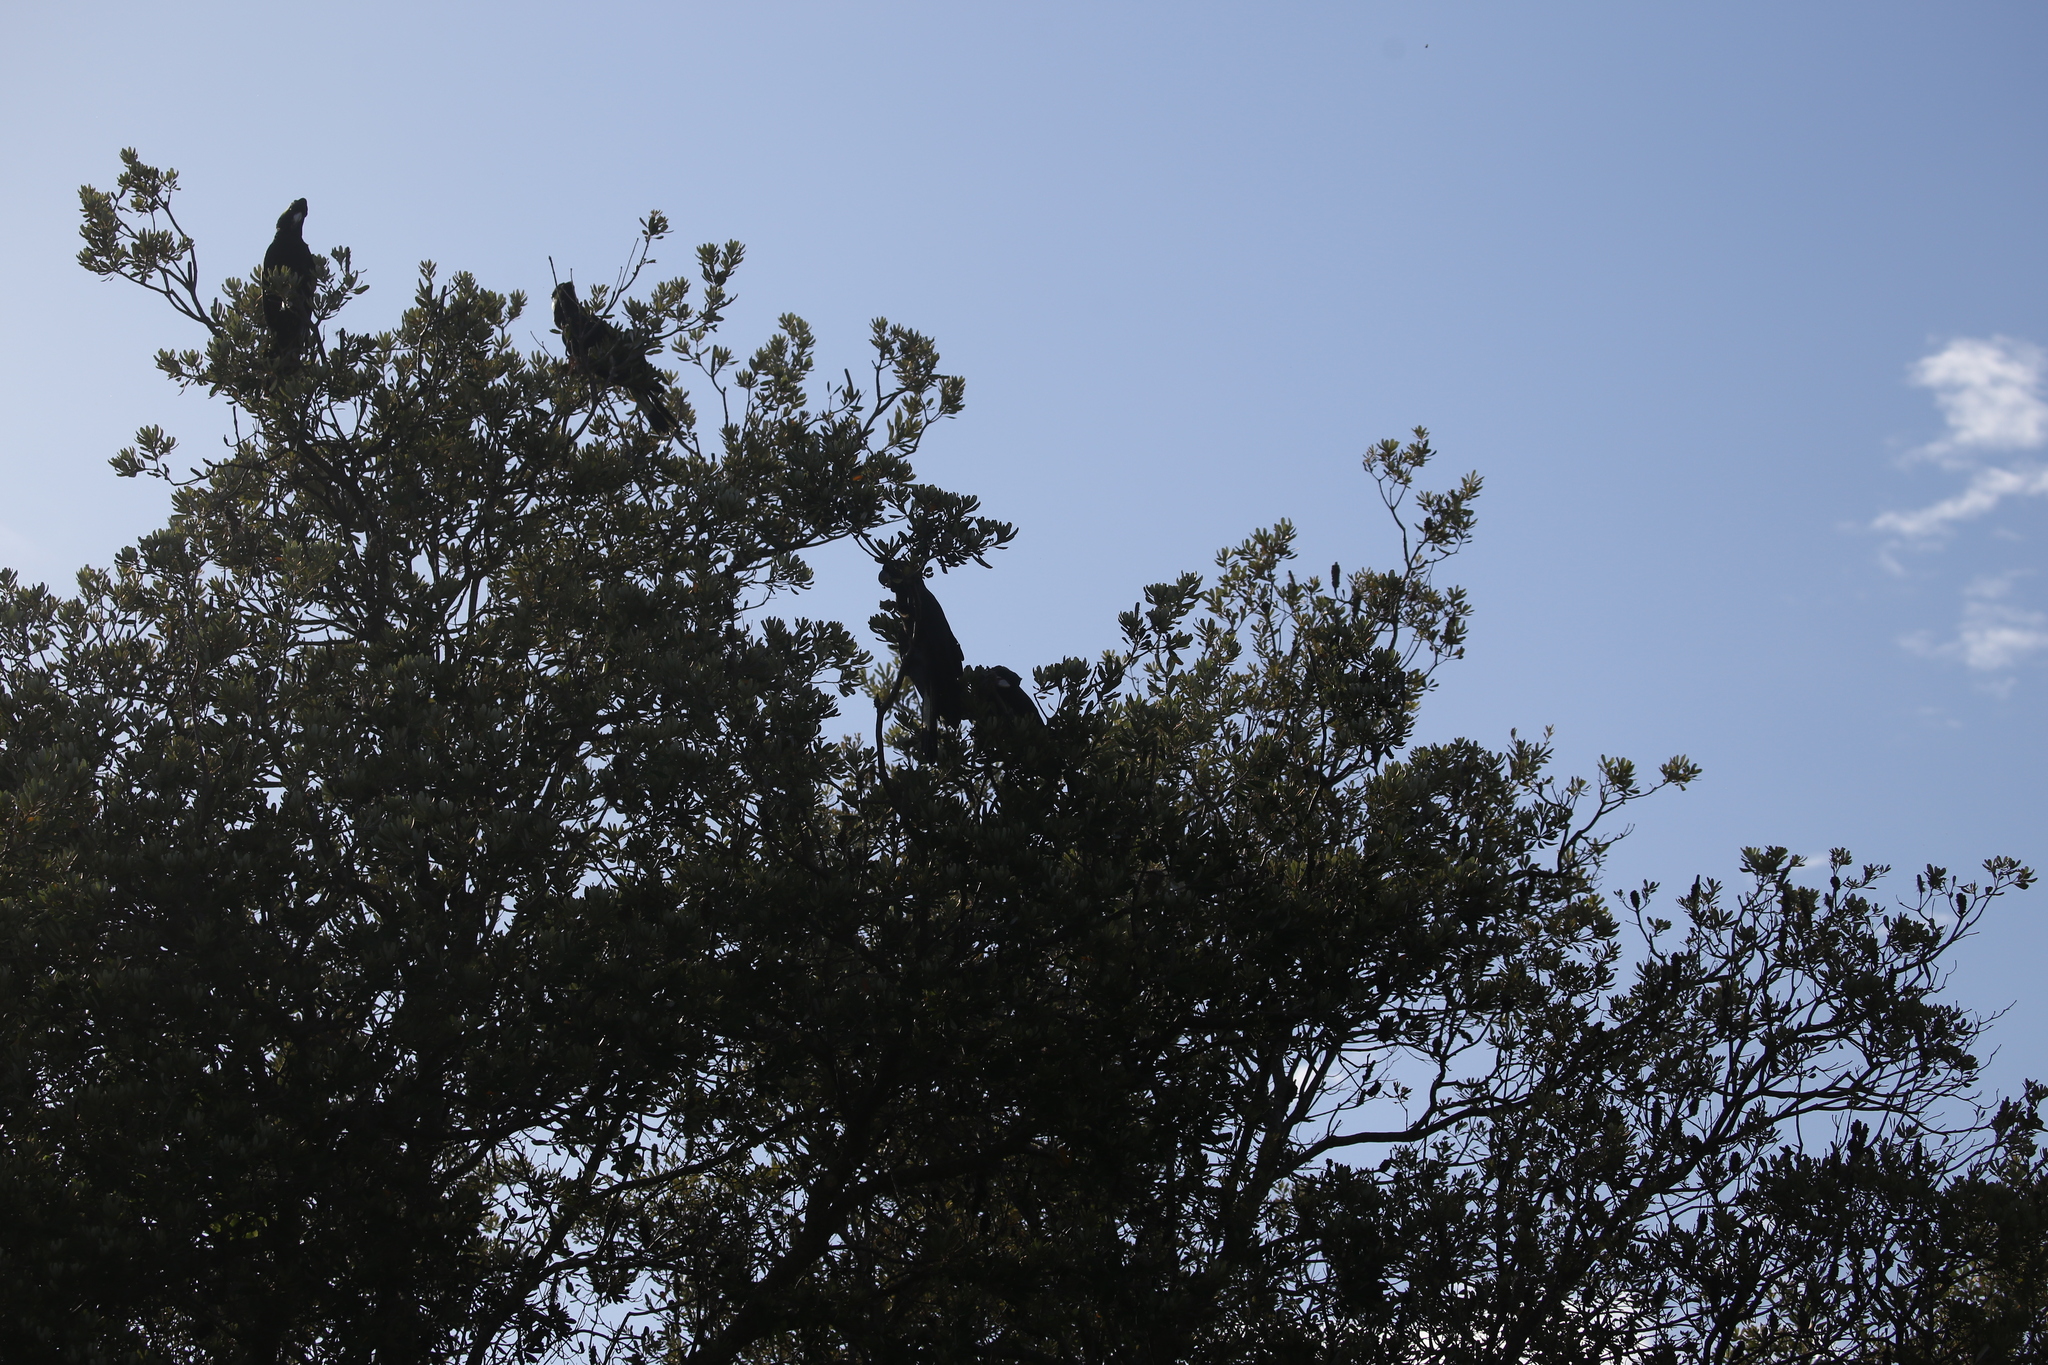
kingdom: Animalia
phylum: Chordata
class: Aves
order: Psittaciformes
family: Cacatuidae
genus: Zanda
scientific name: Zanda funerea
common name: Yellow-tailed black-cockatoo
